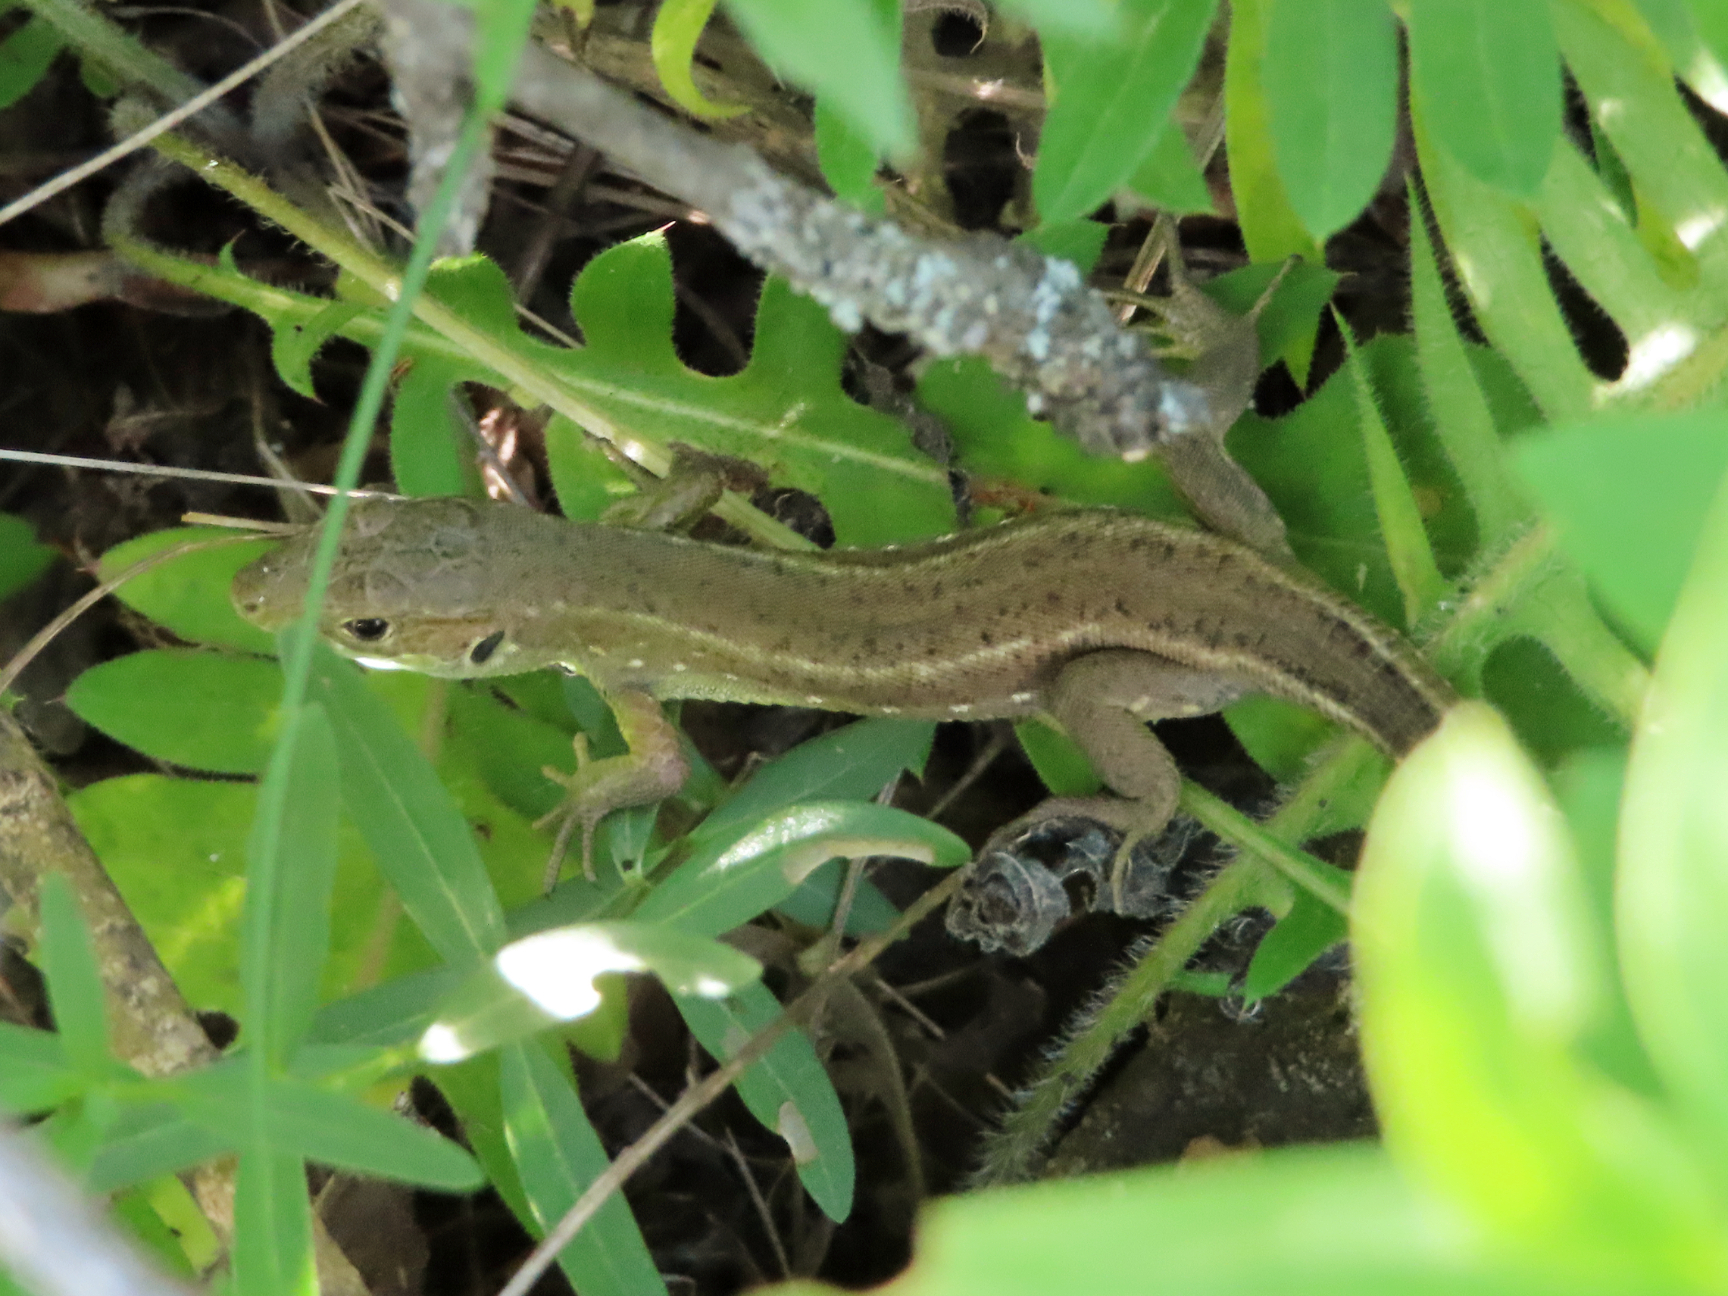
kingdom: Animalia
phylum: Chordata
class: Squamata
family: Lacertidae
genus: Lacerta
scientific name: Lacerta viridis
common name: European green lizard
